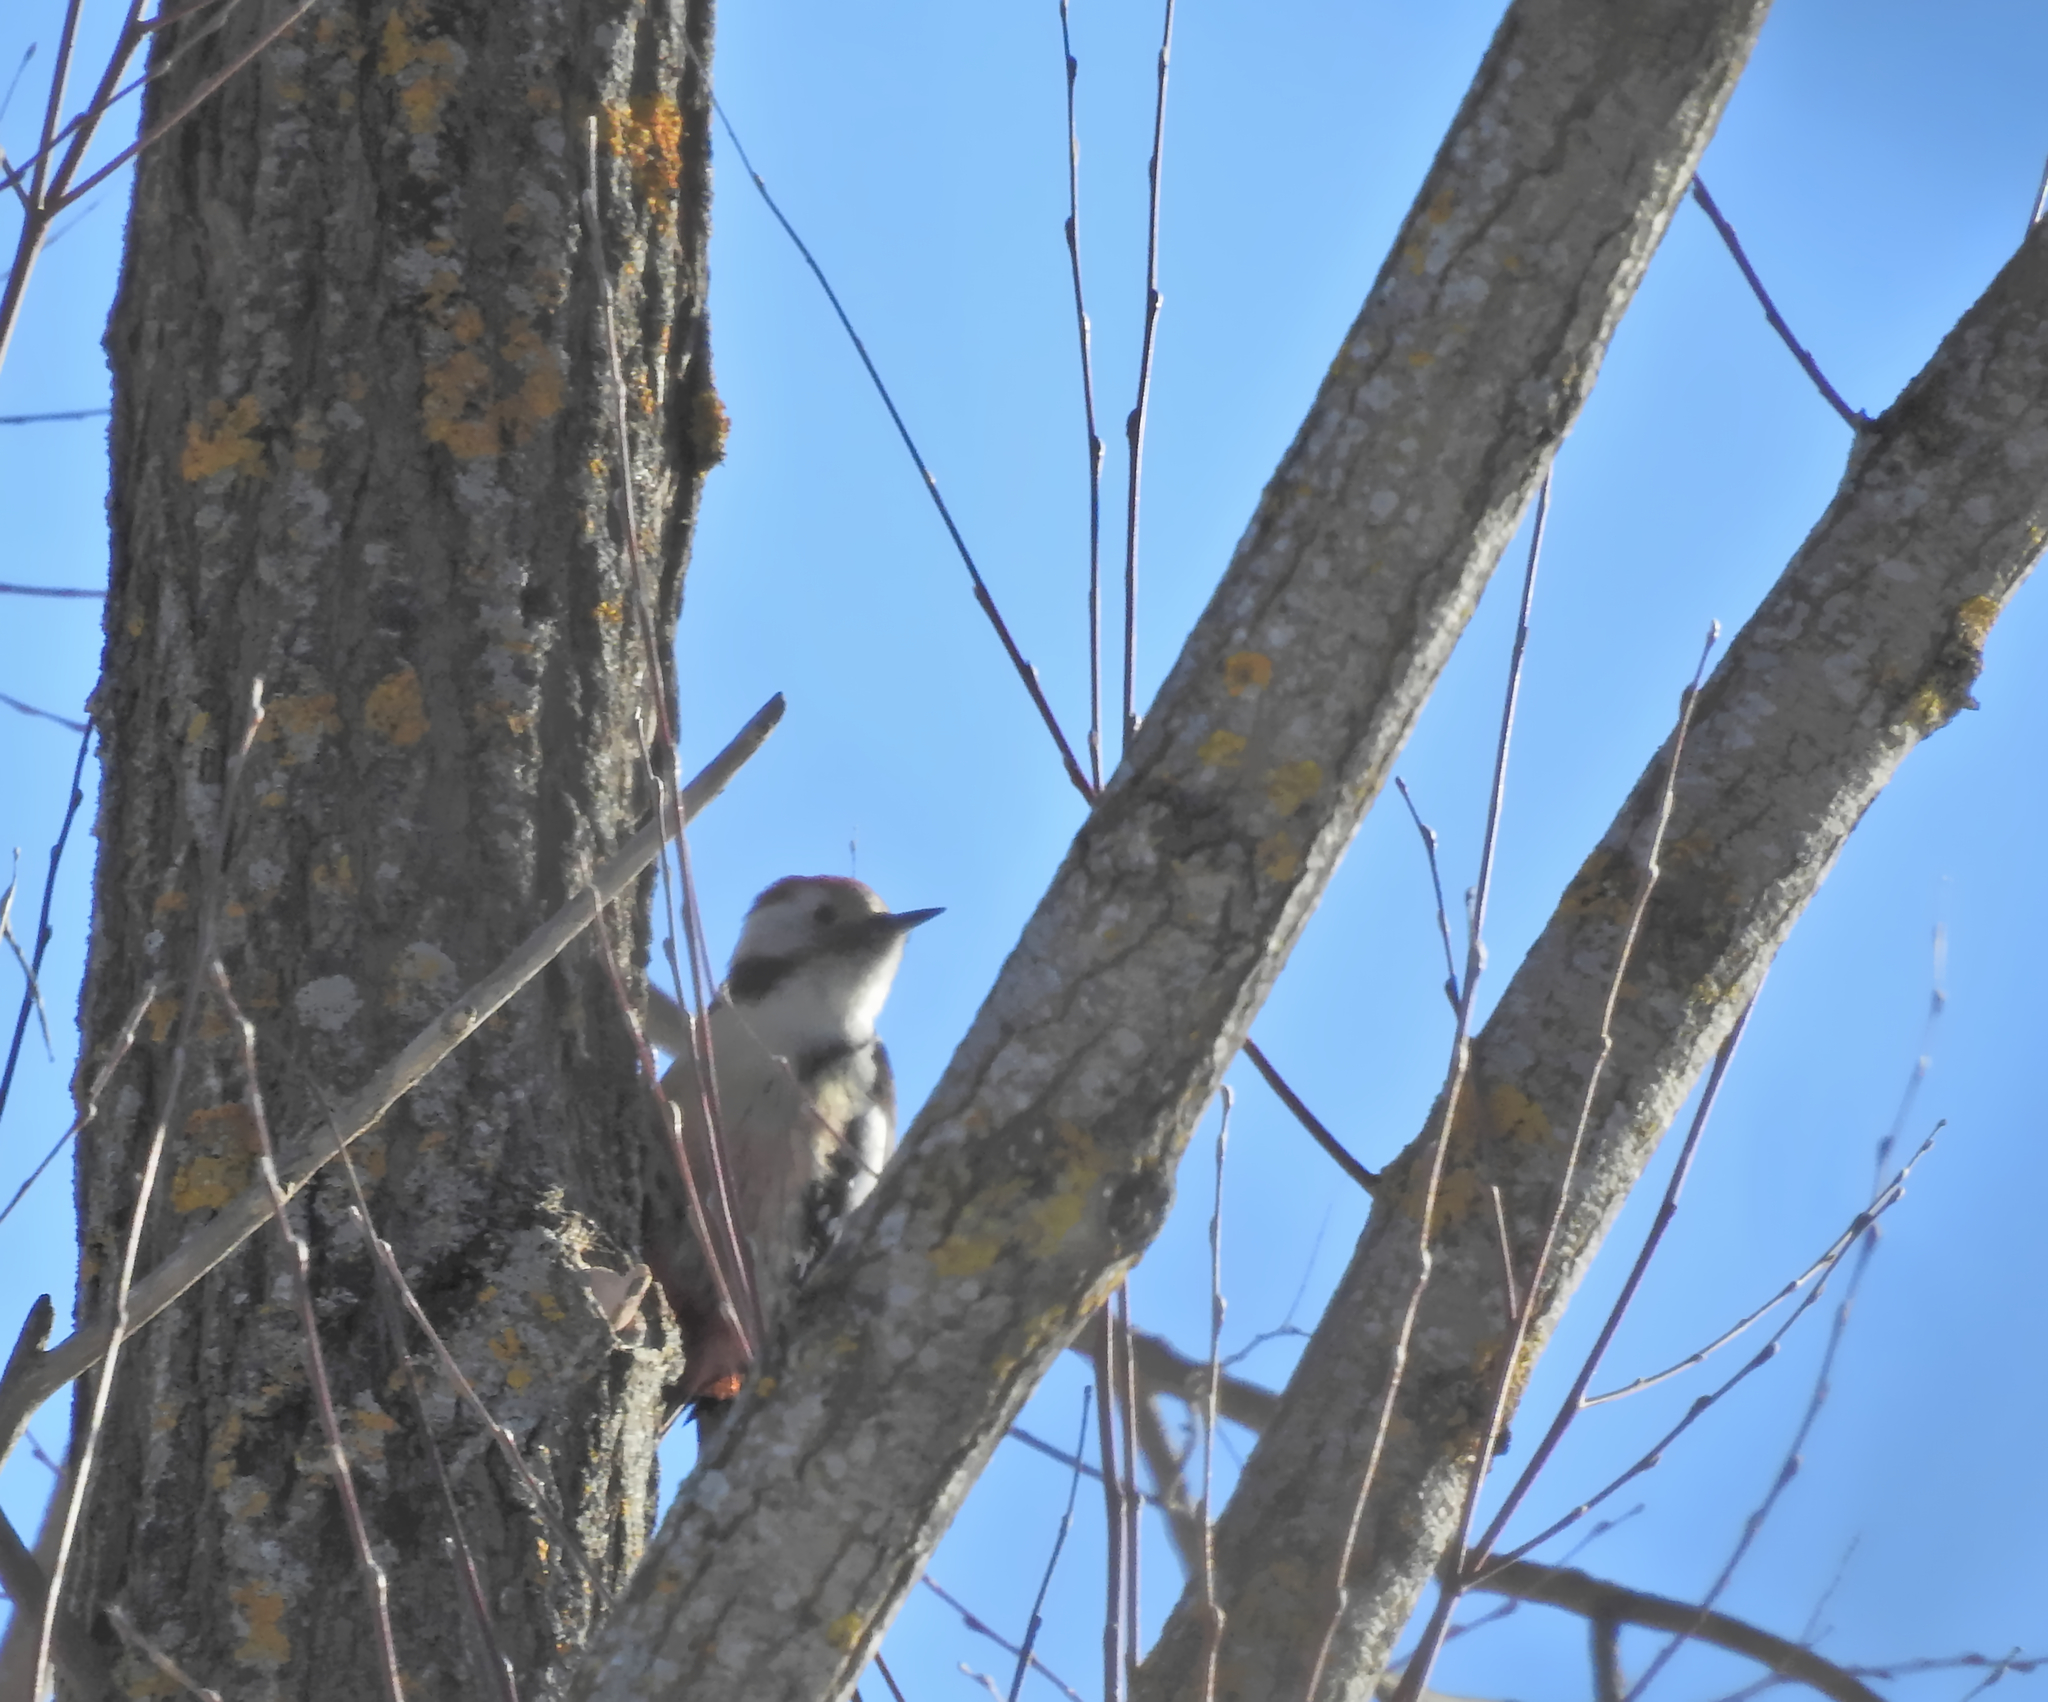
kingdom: Animalia
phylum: Chordata
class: Aves
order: Piciformes
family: Picidae
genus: Dendrocoptes
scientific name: Dendrocoptes medius
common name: Middle spotted woodpecker
